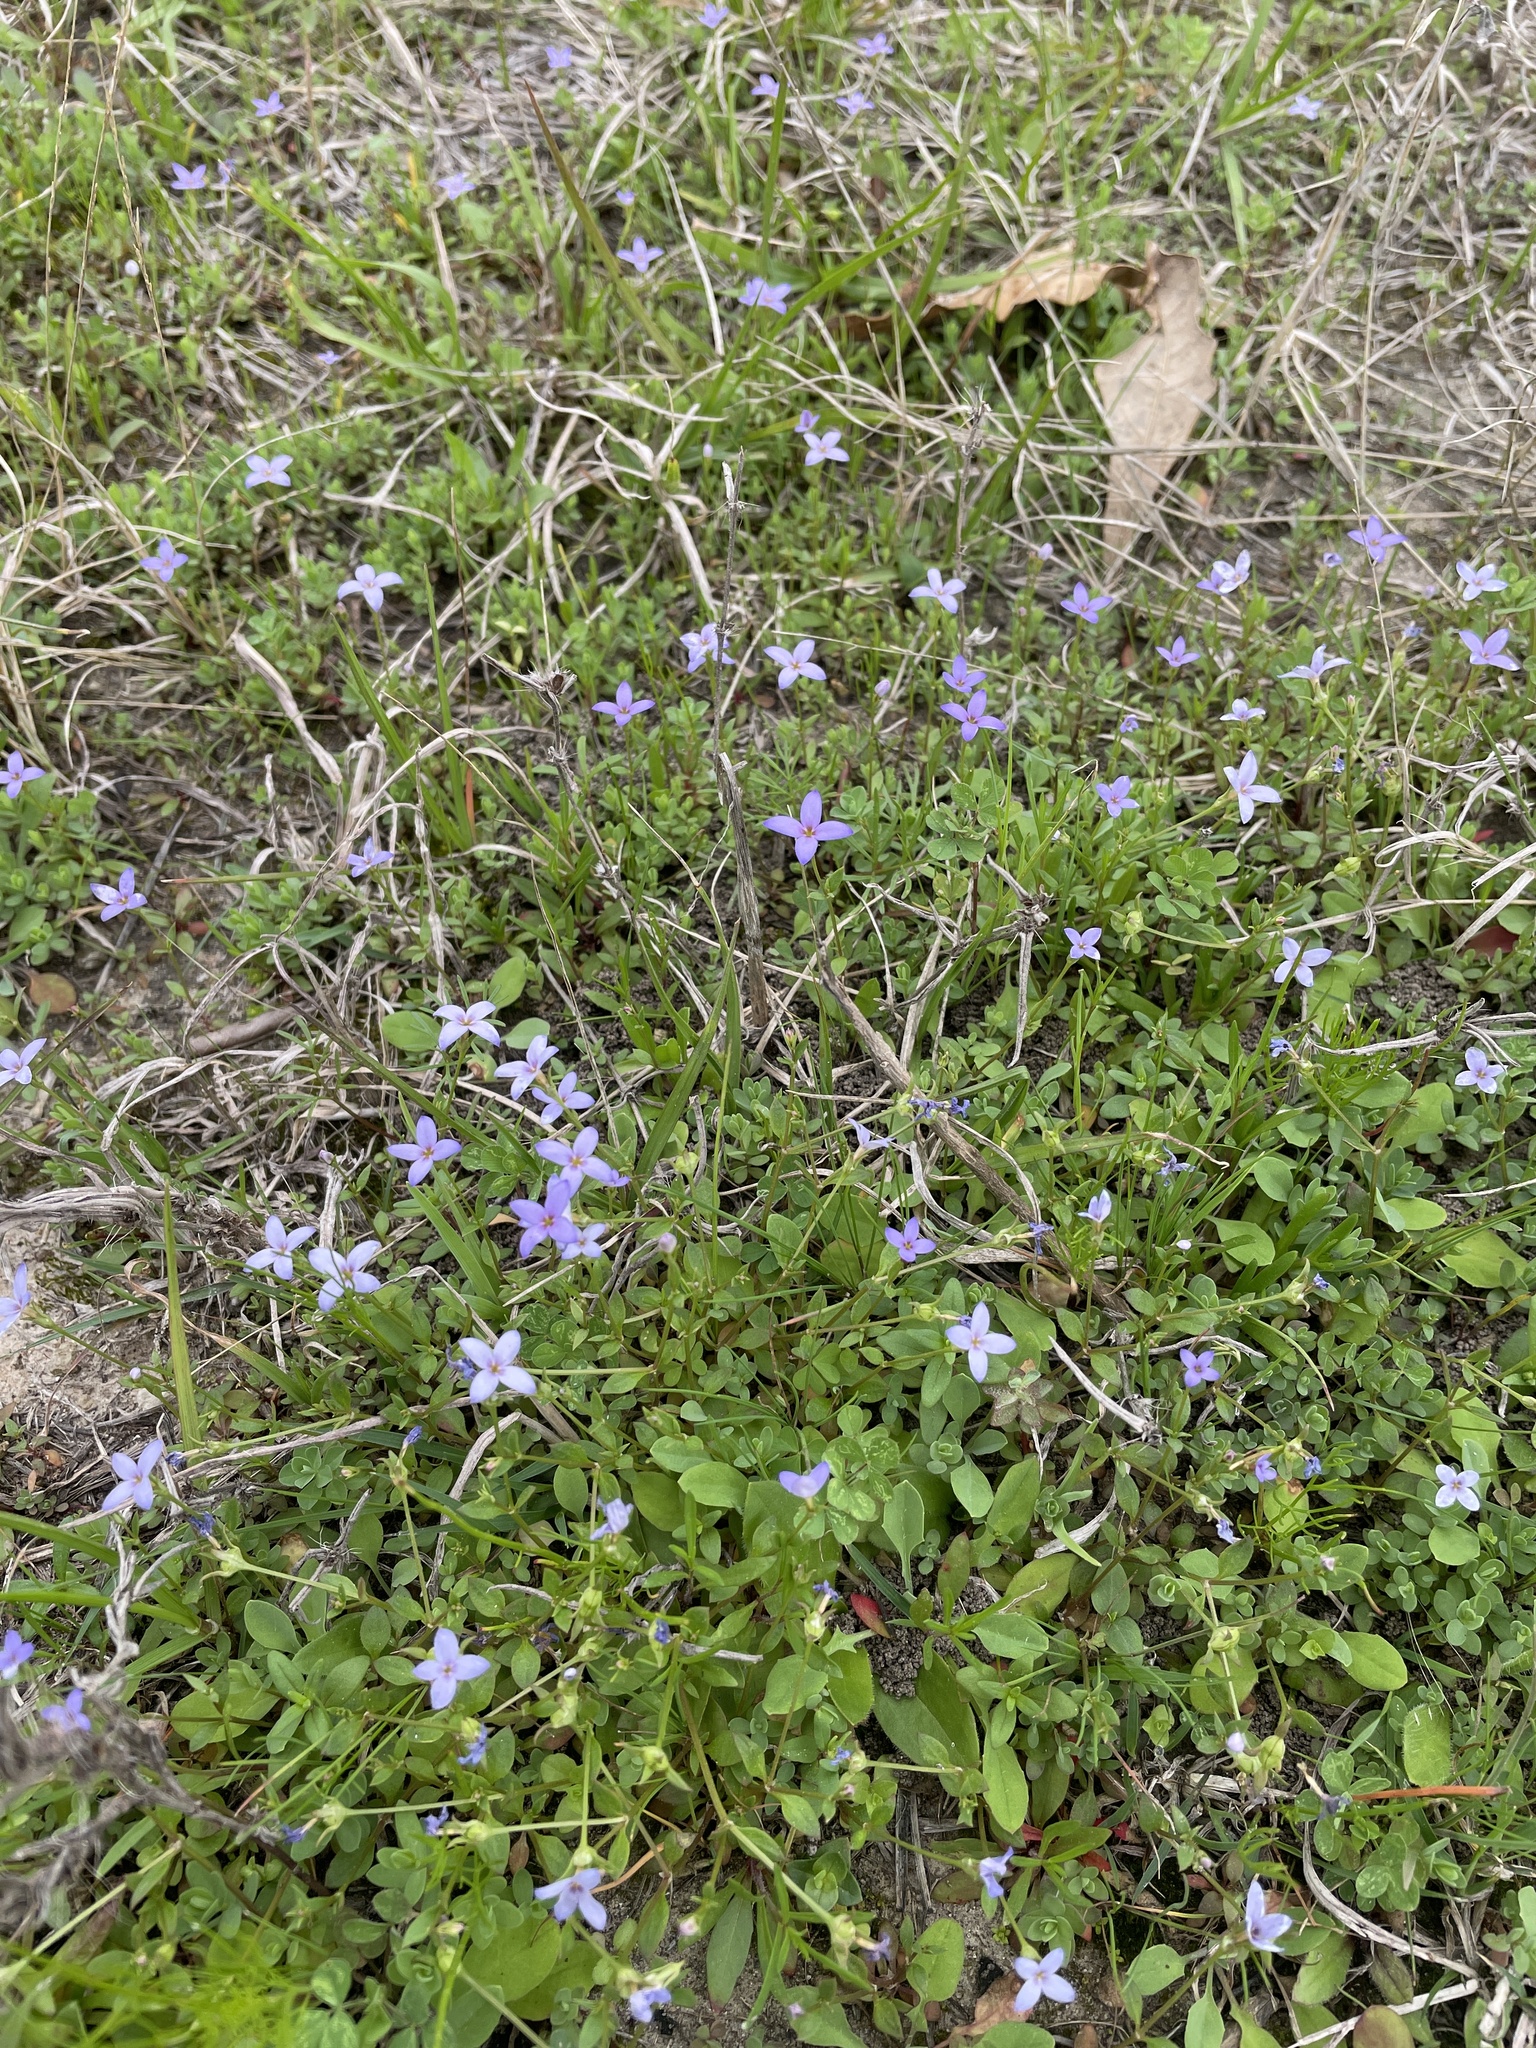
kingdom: Plantae
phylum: Tracheophyta
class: Magnoliopsida
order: Gentianales
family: Rubiaceae
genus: Houstonia
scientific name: Houstonia pusilla
